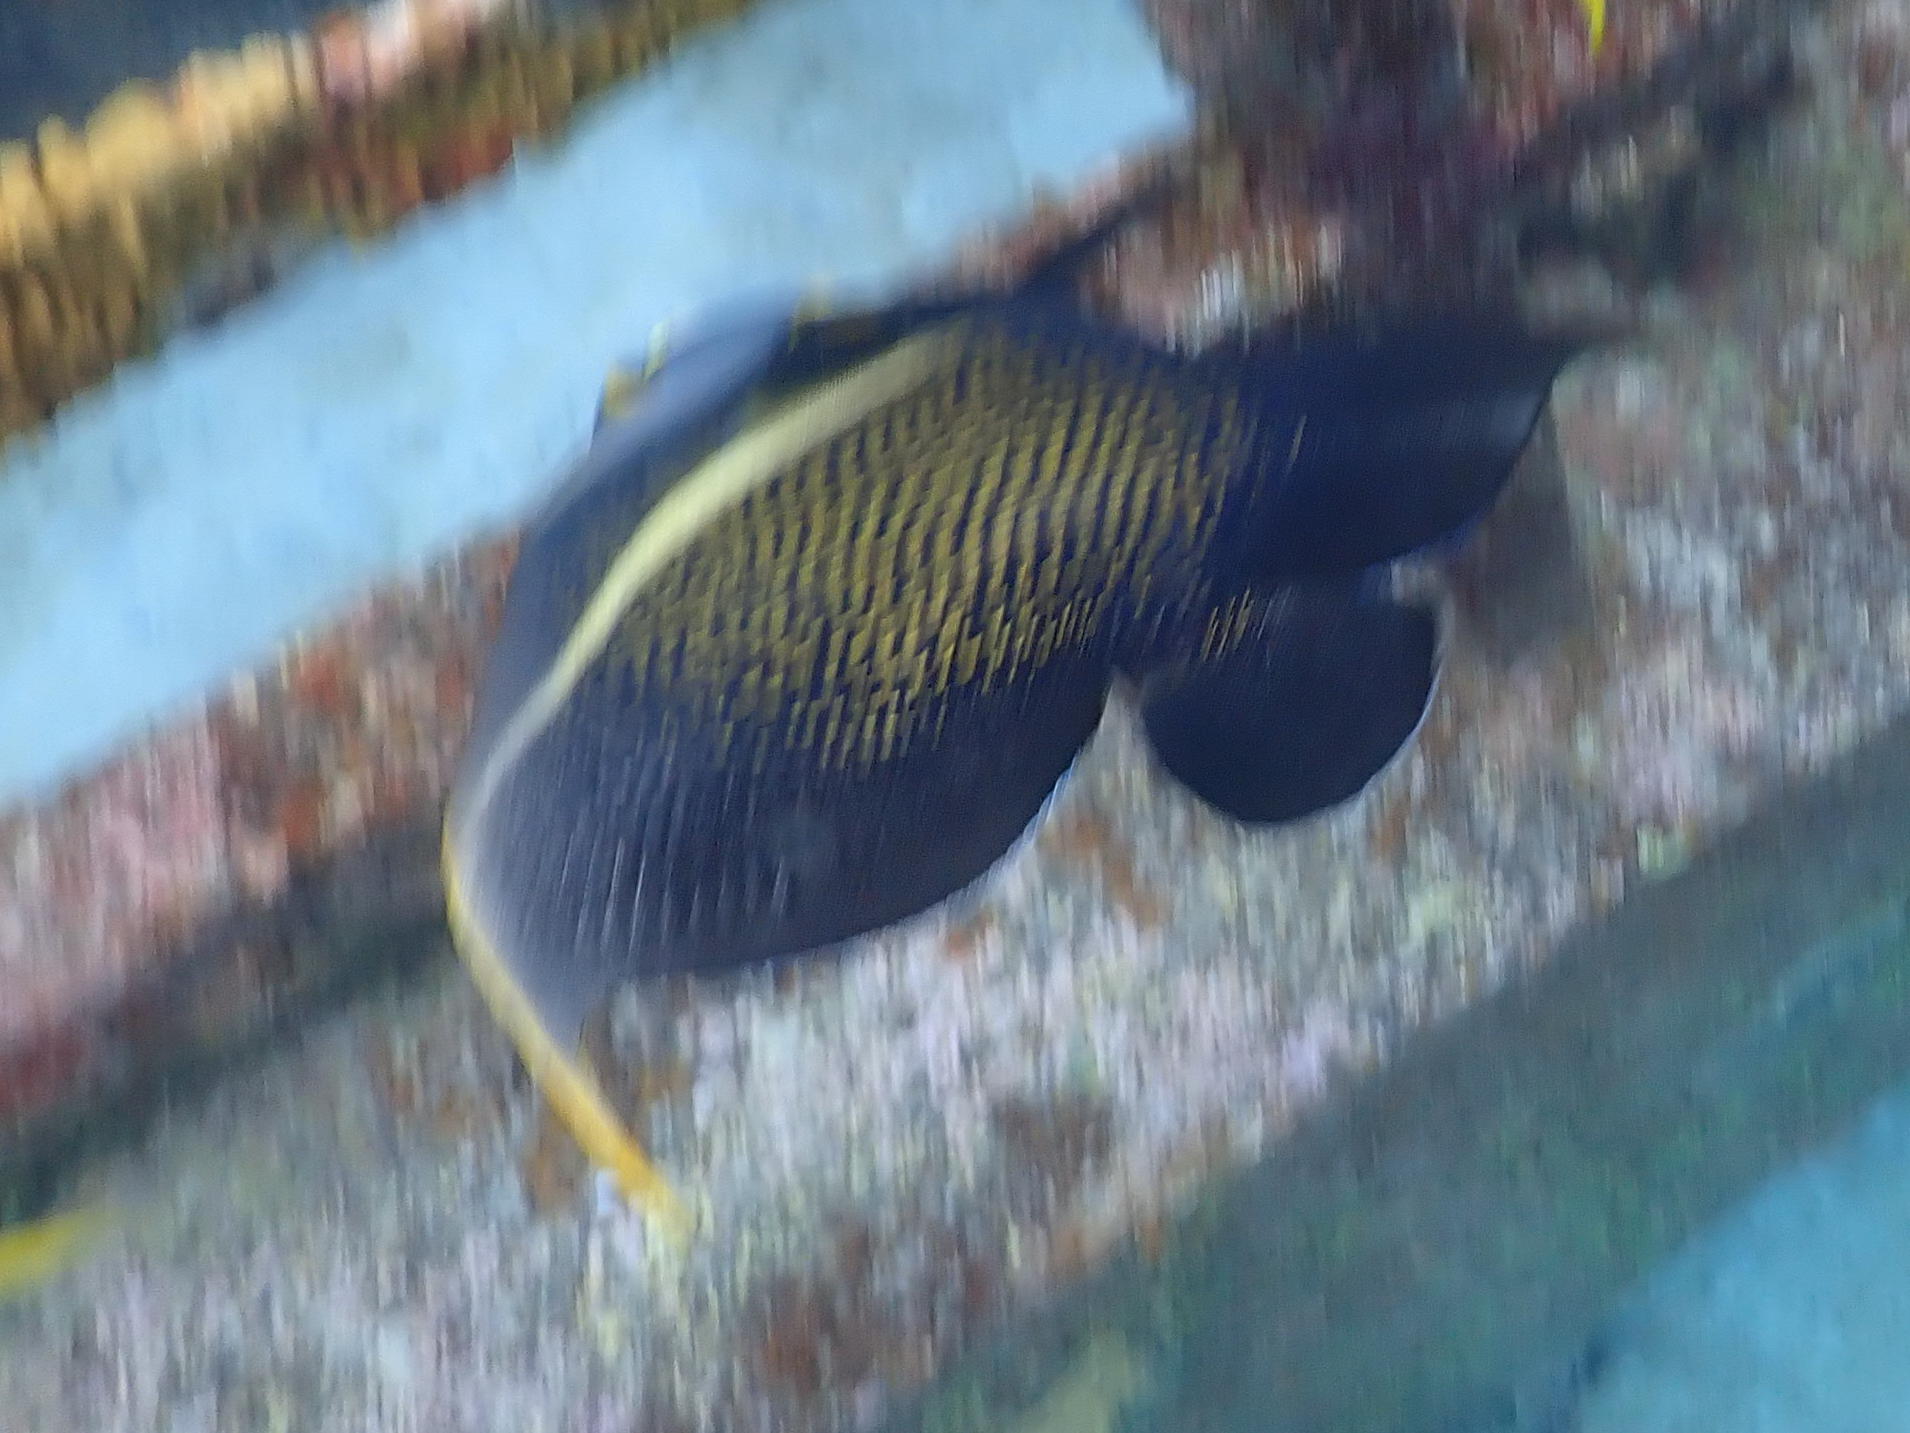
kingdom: Animalia
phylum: Chordata
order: Perciformes
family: Pomacanthidae
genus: Pomacanthus
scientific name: Pomacanthus paru
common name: French angelfish
